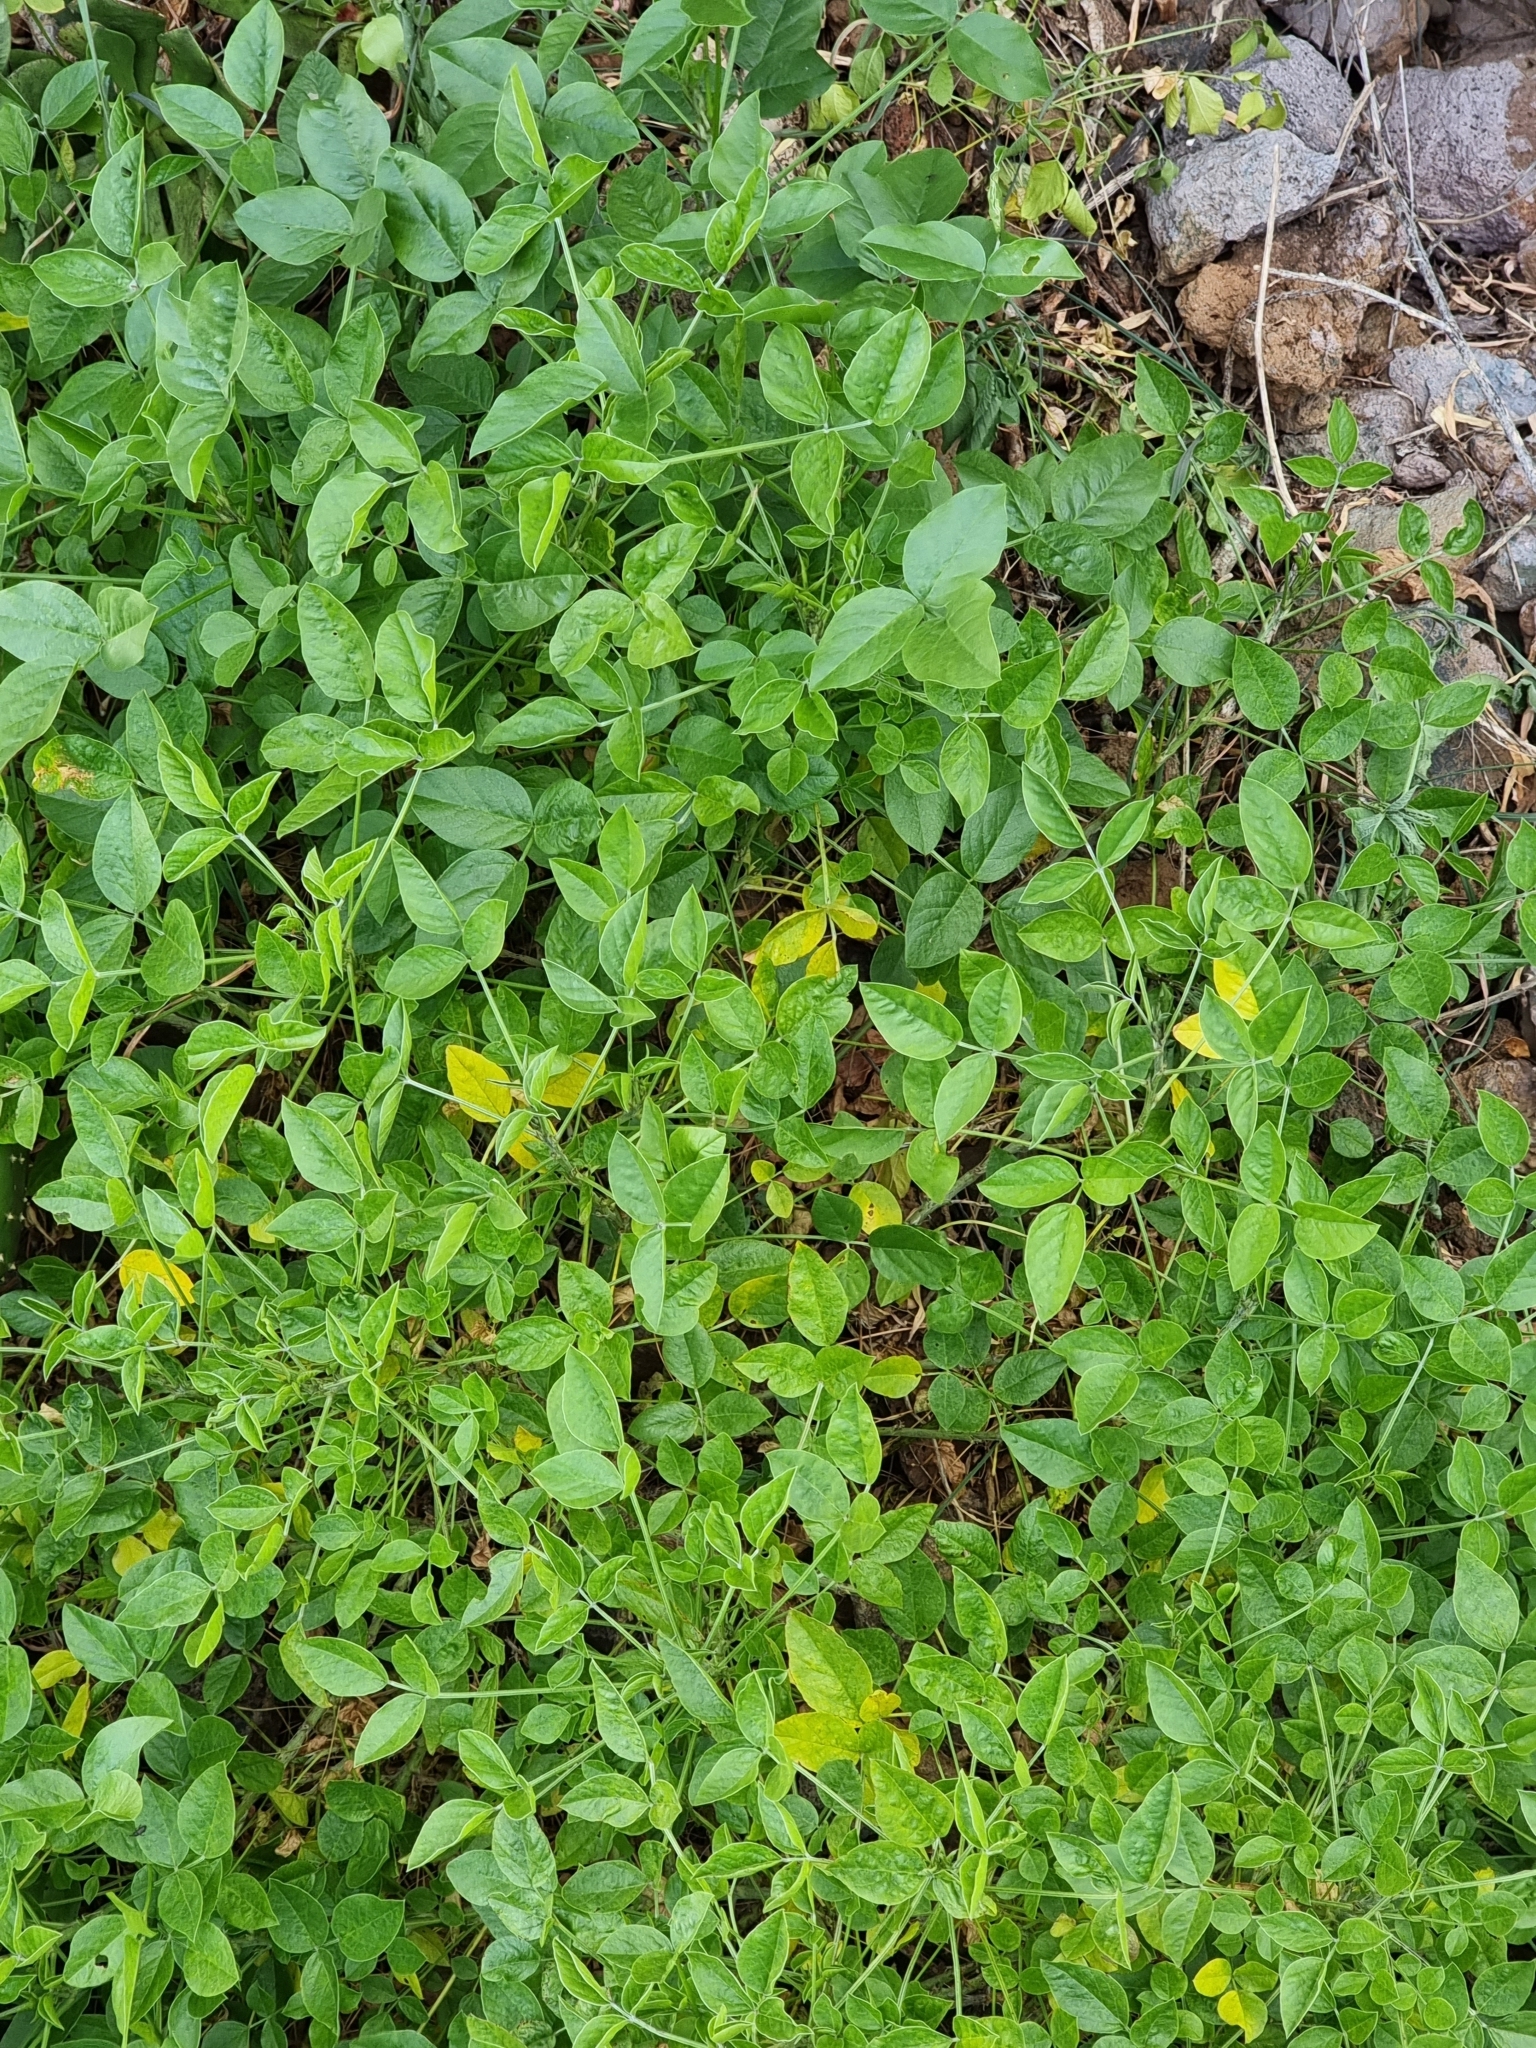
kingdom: Plantae
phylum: Tracheophyta
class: Magnoliopsida
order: Fabales
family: Fabaceae
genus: Bituminaria
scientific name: Bituminaria bituminosa
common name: Arabian pea
